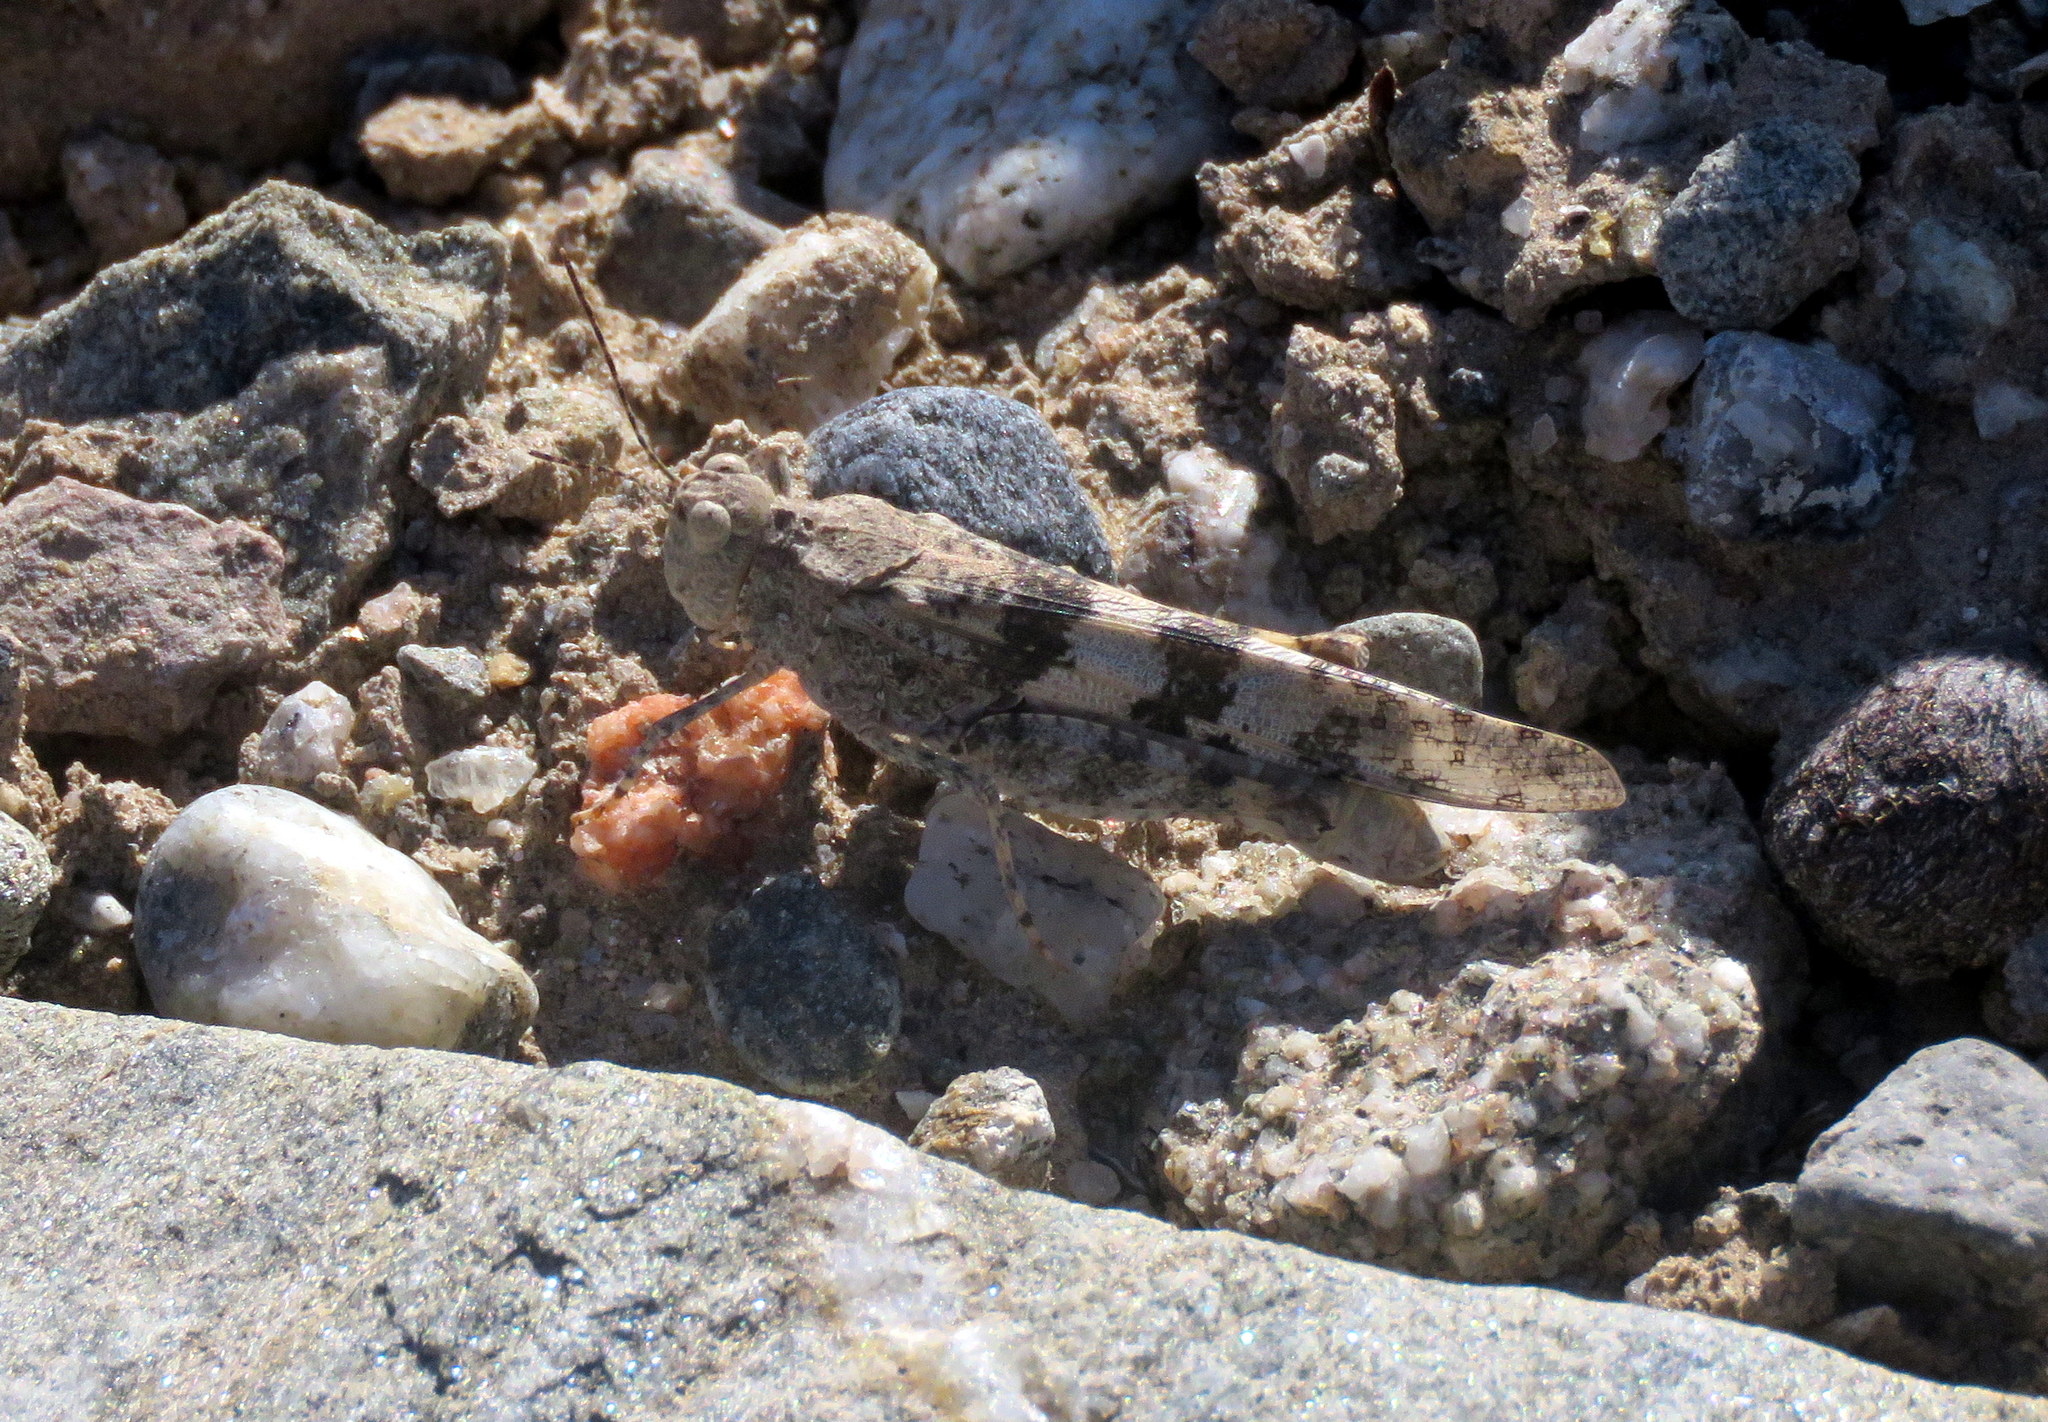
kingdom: Animalia
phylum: Arthropoda
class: Insecta
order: Orthoptera
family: Acrididae
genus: Trimerotropis
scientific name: Trimerotropis pallidipennis
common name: Pallid-winged grasshopper
